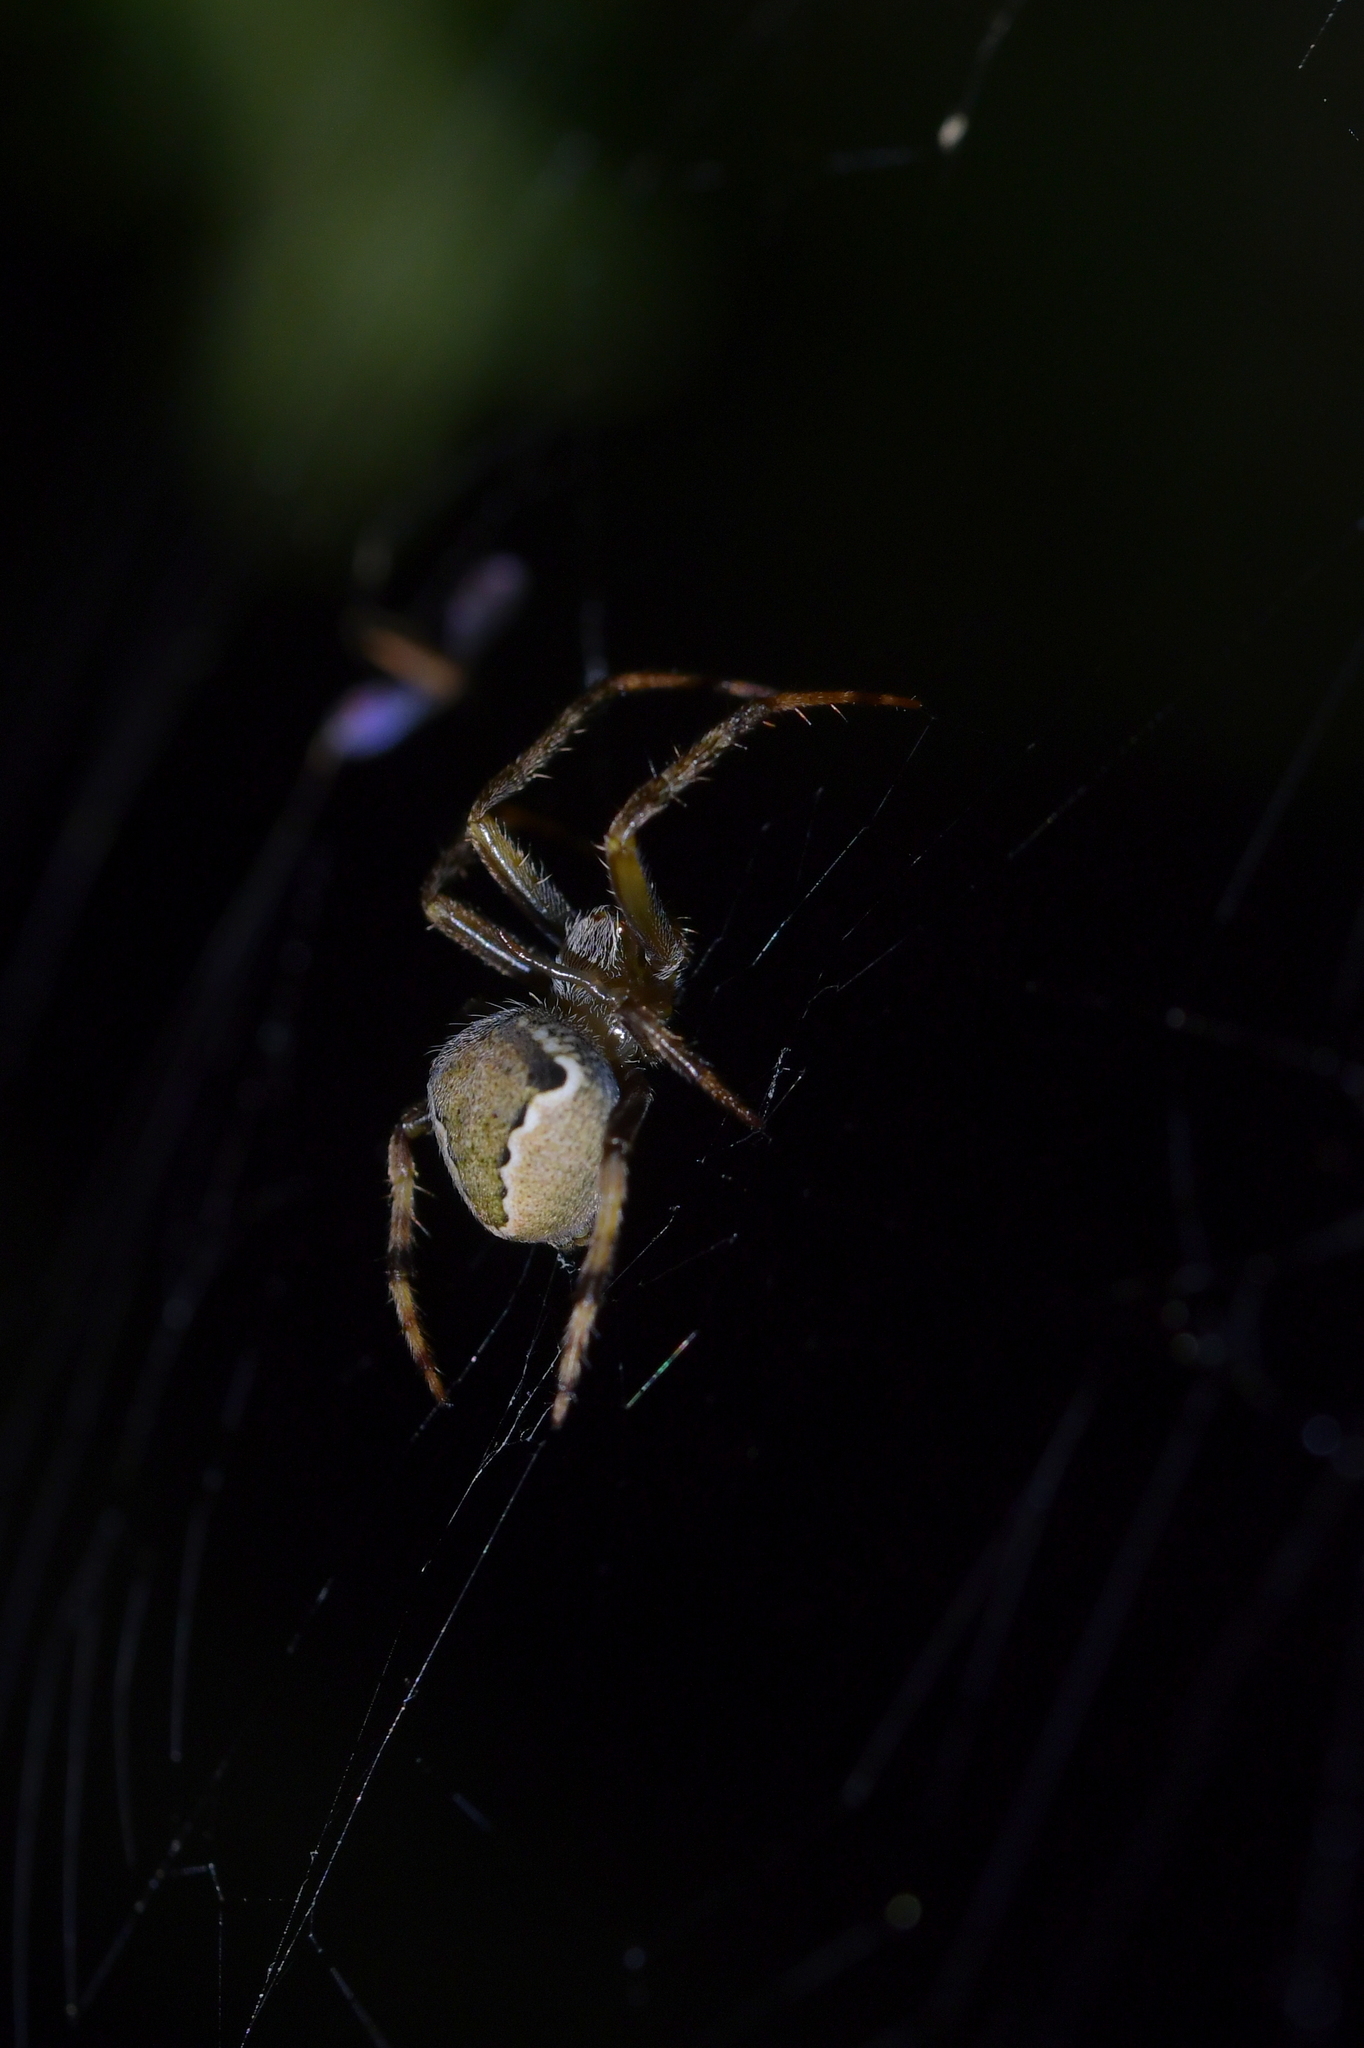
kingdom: Animalia
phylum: Arthropoda
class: Arachnida
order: Araneae
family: Araneidae
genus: Salsa
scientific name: Salsa fuliginata
